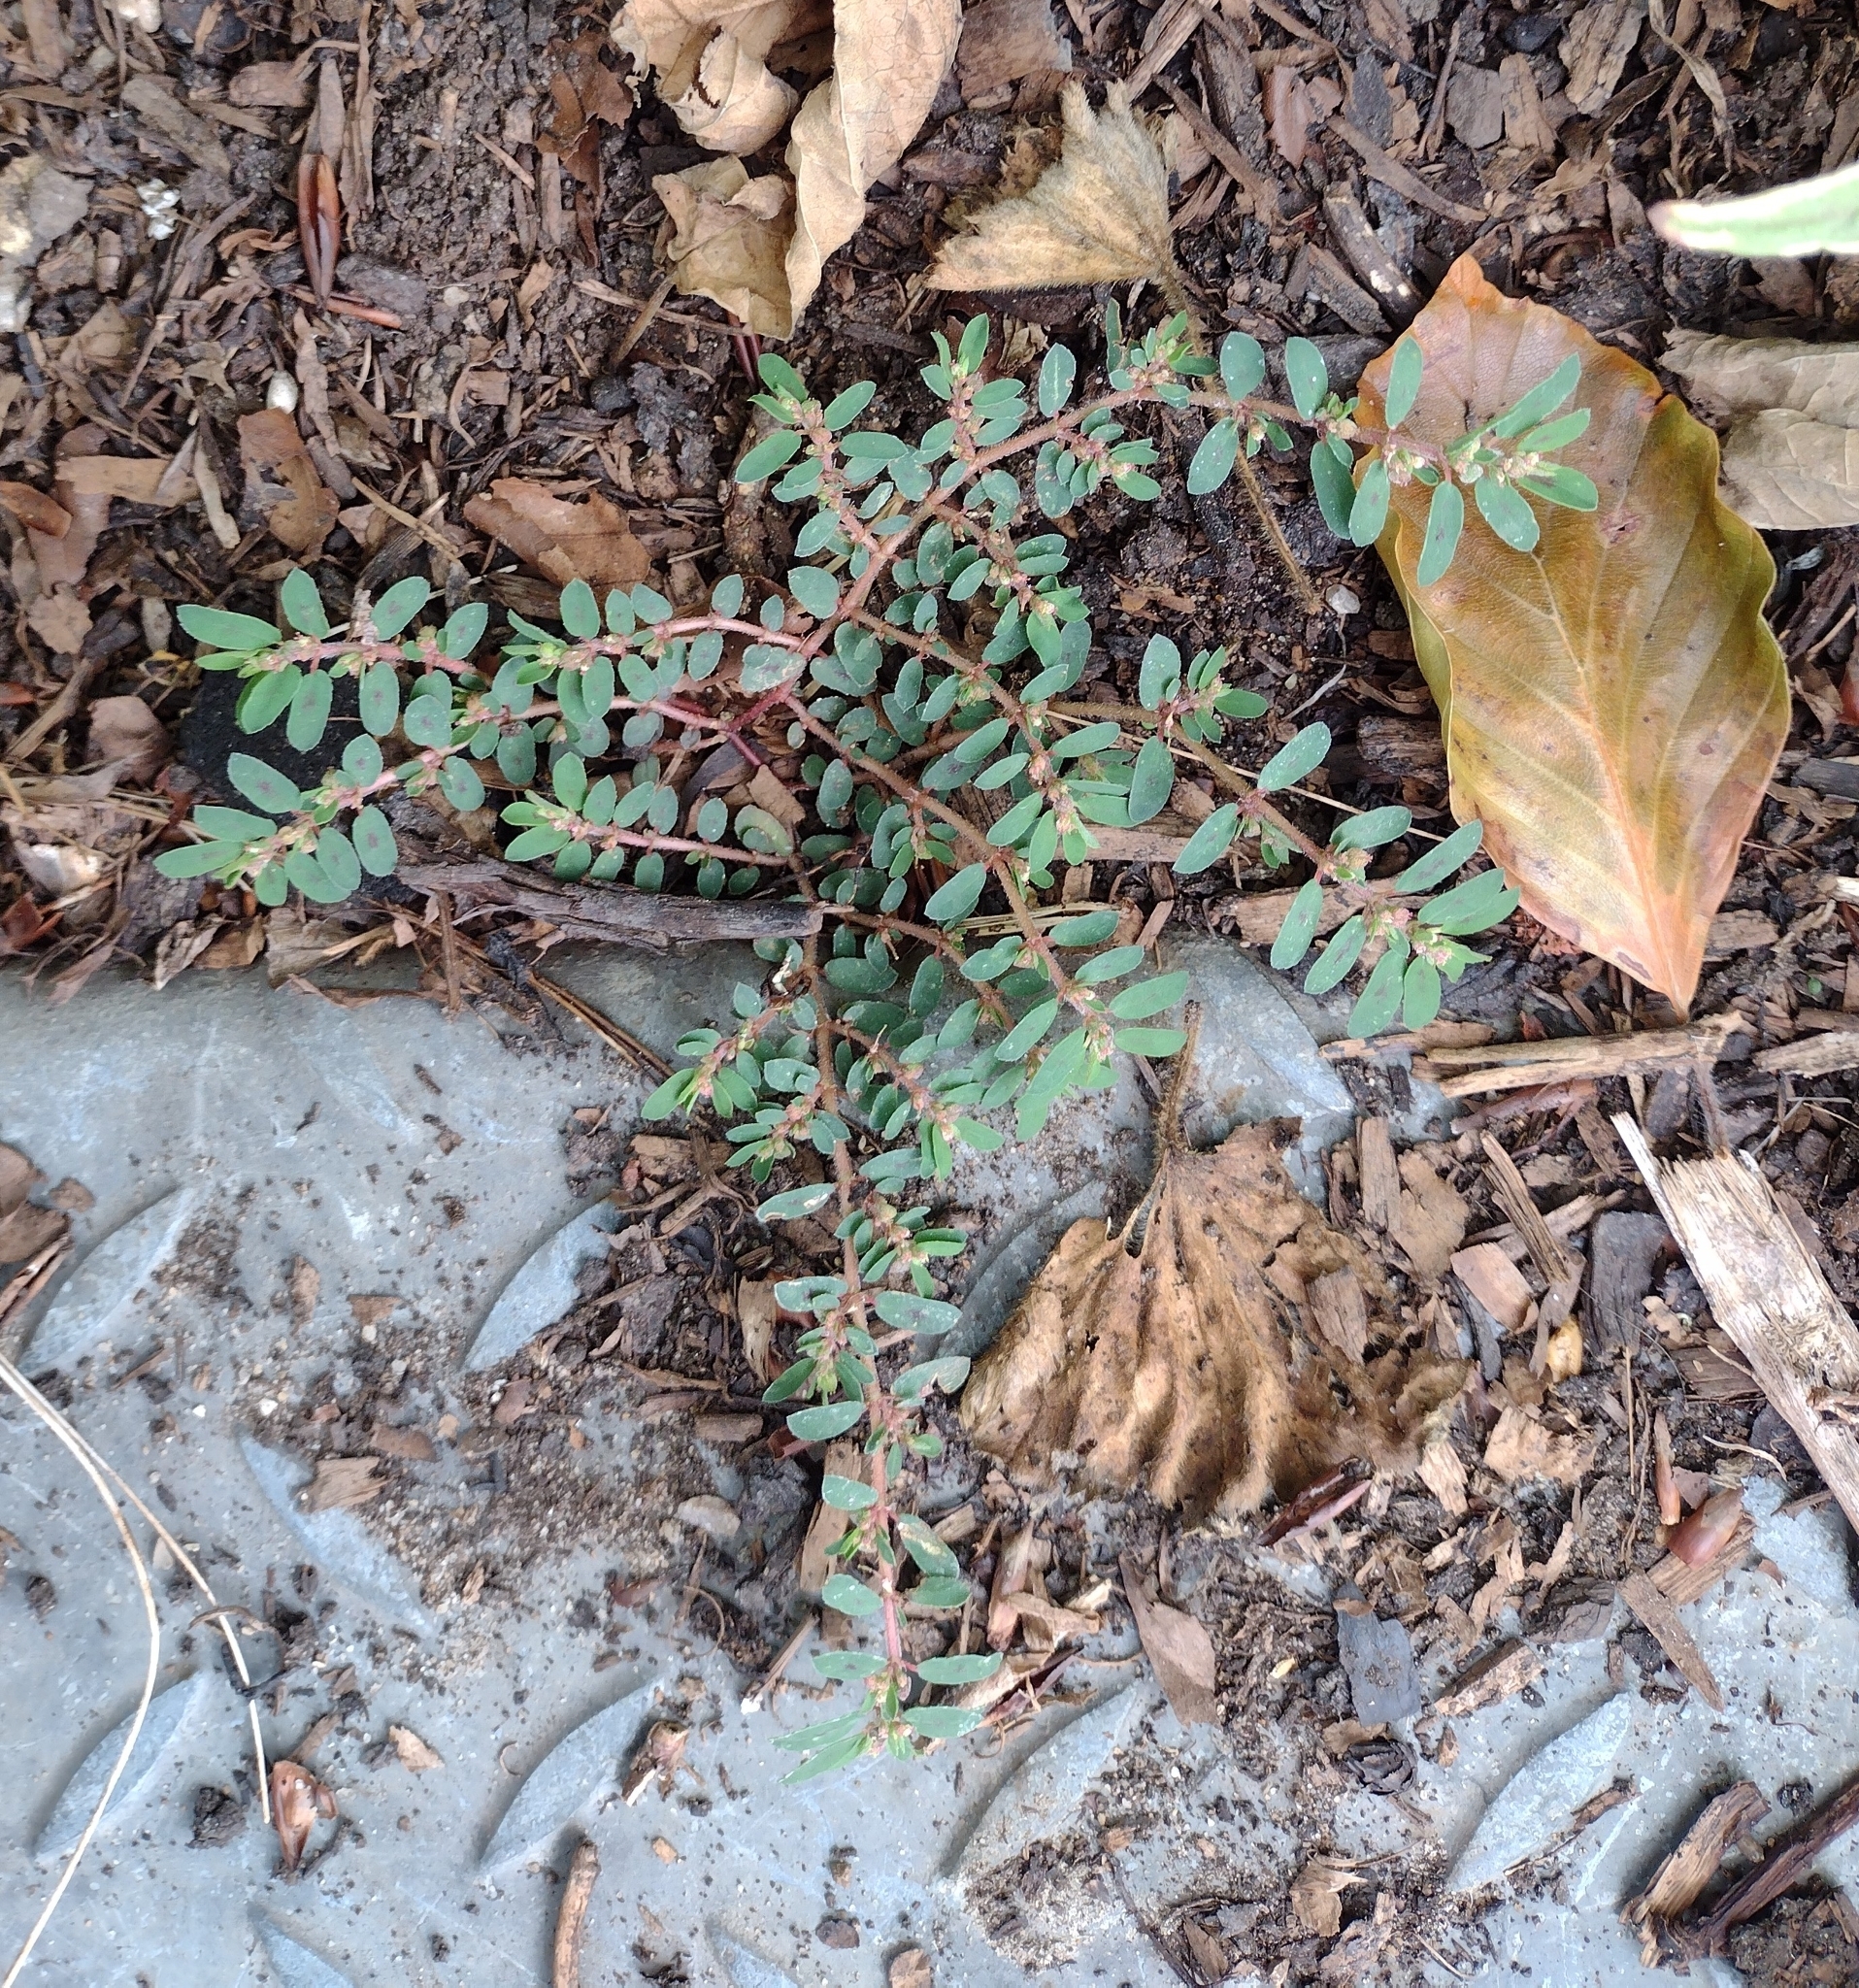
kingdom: Plantae
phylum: Tracheophyta
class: Magnoliopsida
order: Malpighiales
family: Euphorbiaceae
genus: Euphorbia
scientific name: Euphorbia maculata
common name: Spotted spurge
